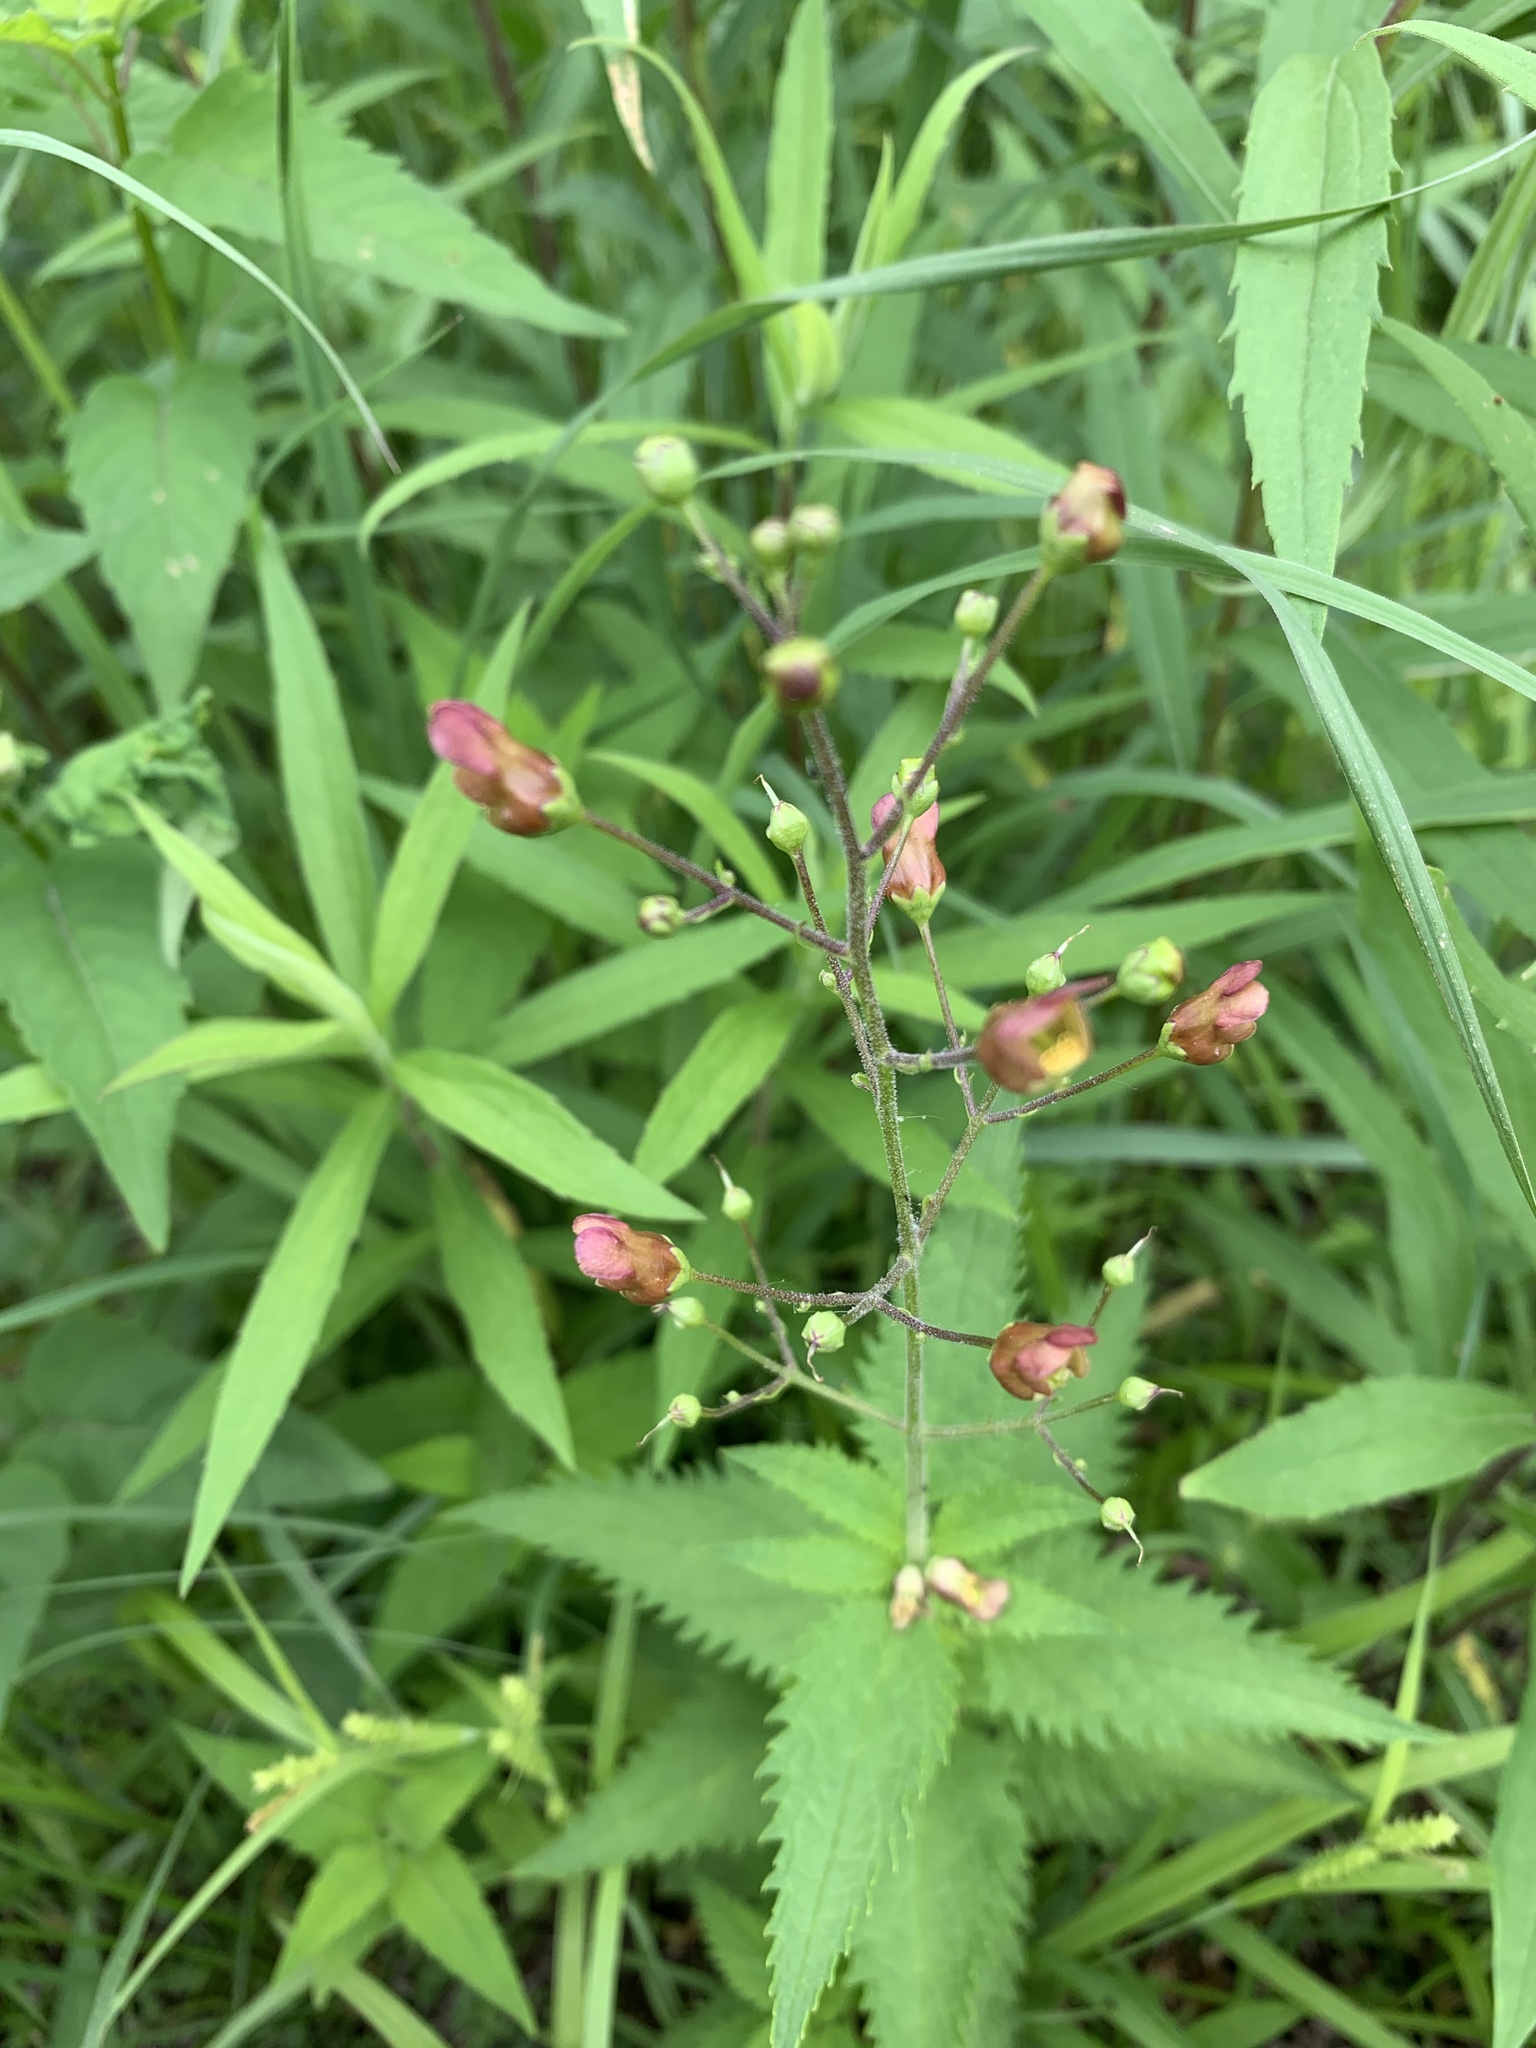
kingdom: Plantae
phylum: Tracheophyta
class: Magnoliopsida
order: Lamiales
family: Scrophulariaceae
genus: Scrophularia
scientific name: Scrophularia lanceolata
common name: American figwort
